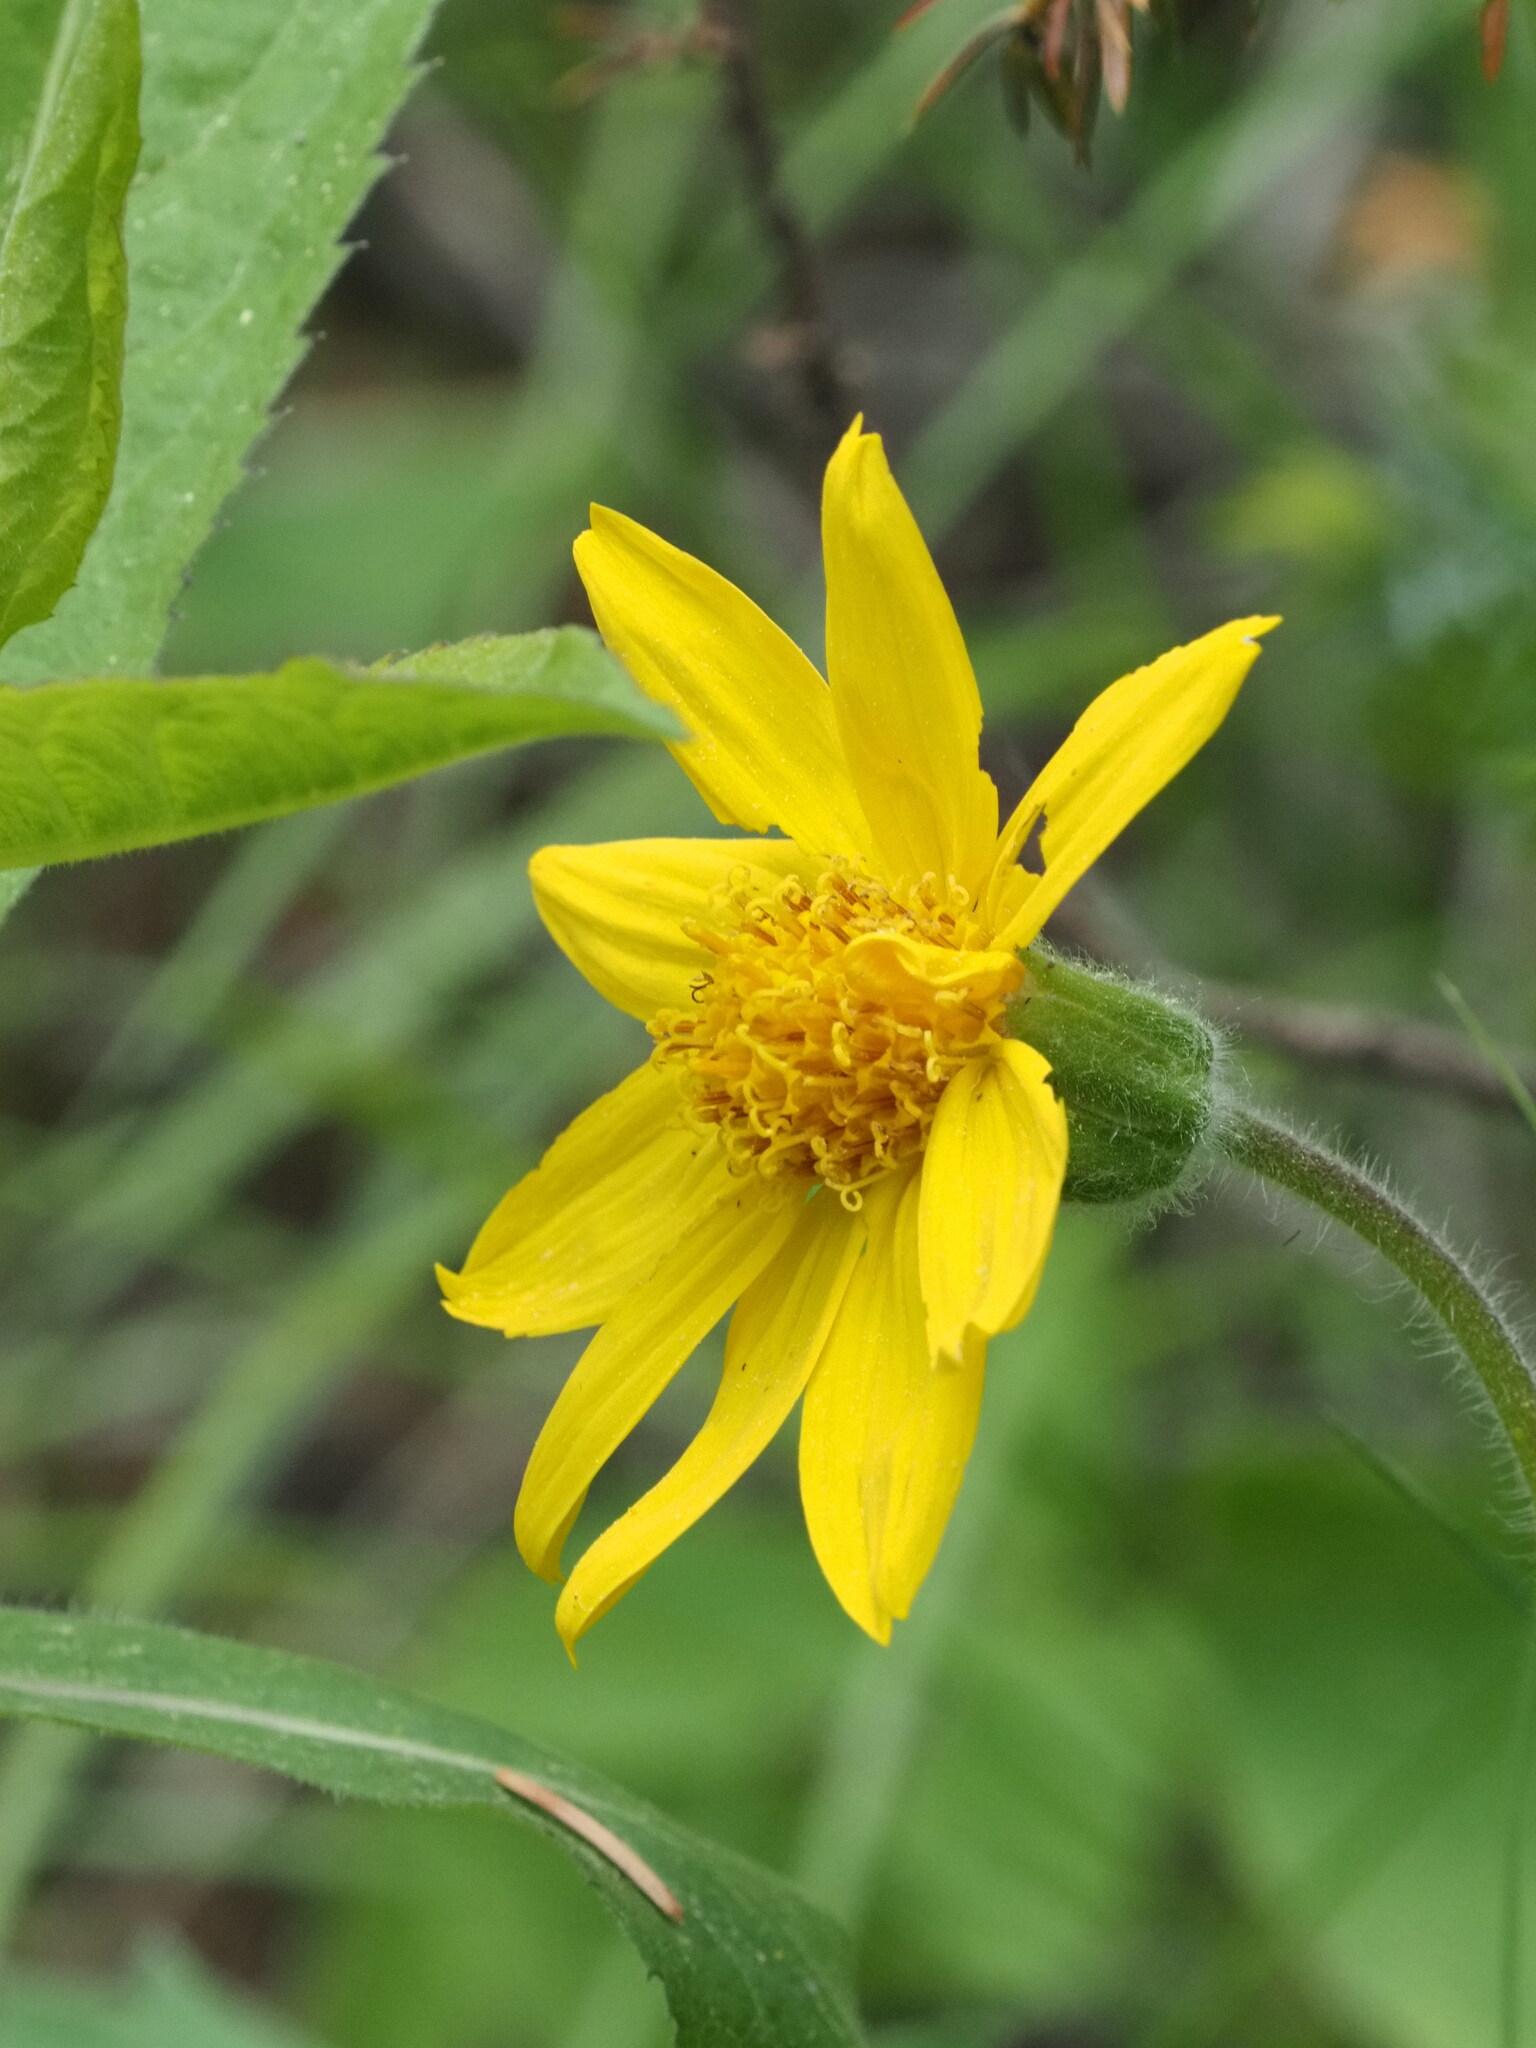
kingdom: Plantae
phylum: Tracheophyta
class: Magnoliopsida
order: Asterales
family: Asteraceae
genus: Arnica
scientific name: Arnica cordifolia
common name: Heart-leaf arnica
